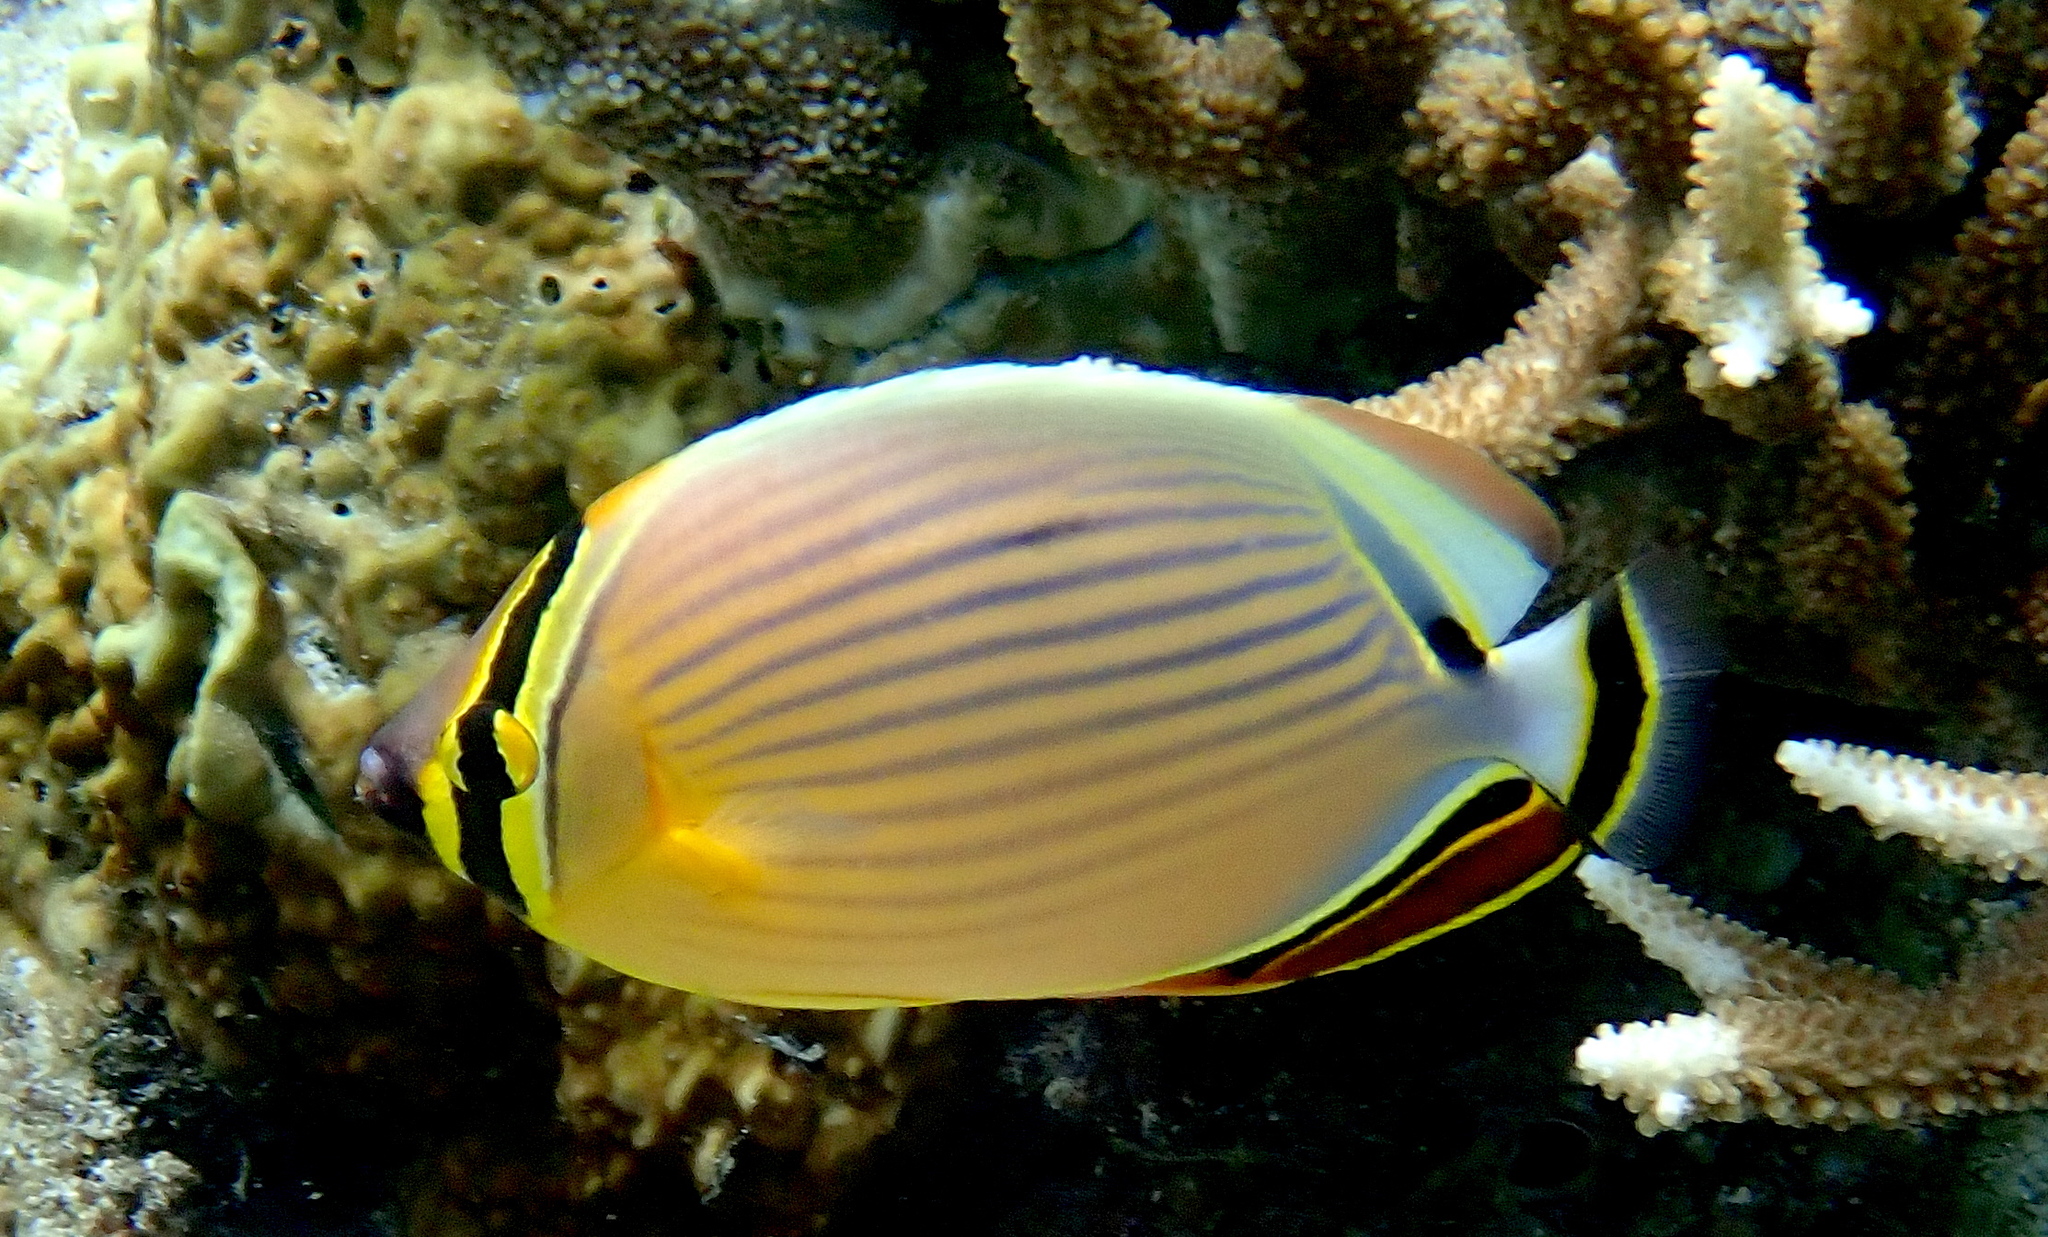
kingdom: Animalia
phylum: Chordata
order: Perciformes
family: Chaetodontidae
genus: Chaetodon
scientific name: Chaetodon lunulatus
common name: Redfin butterflyfish
